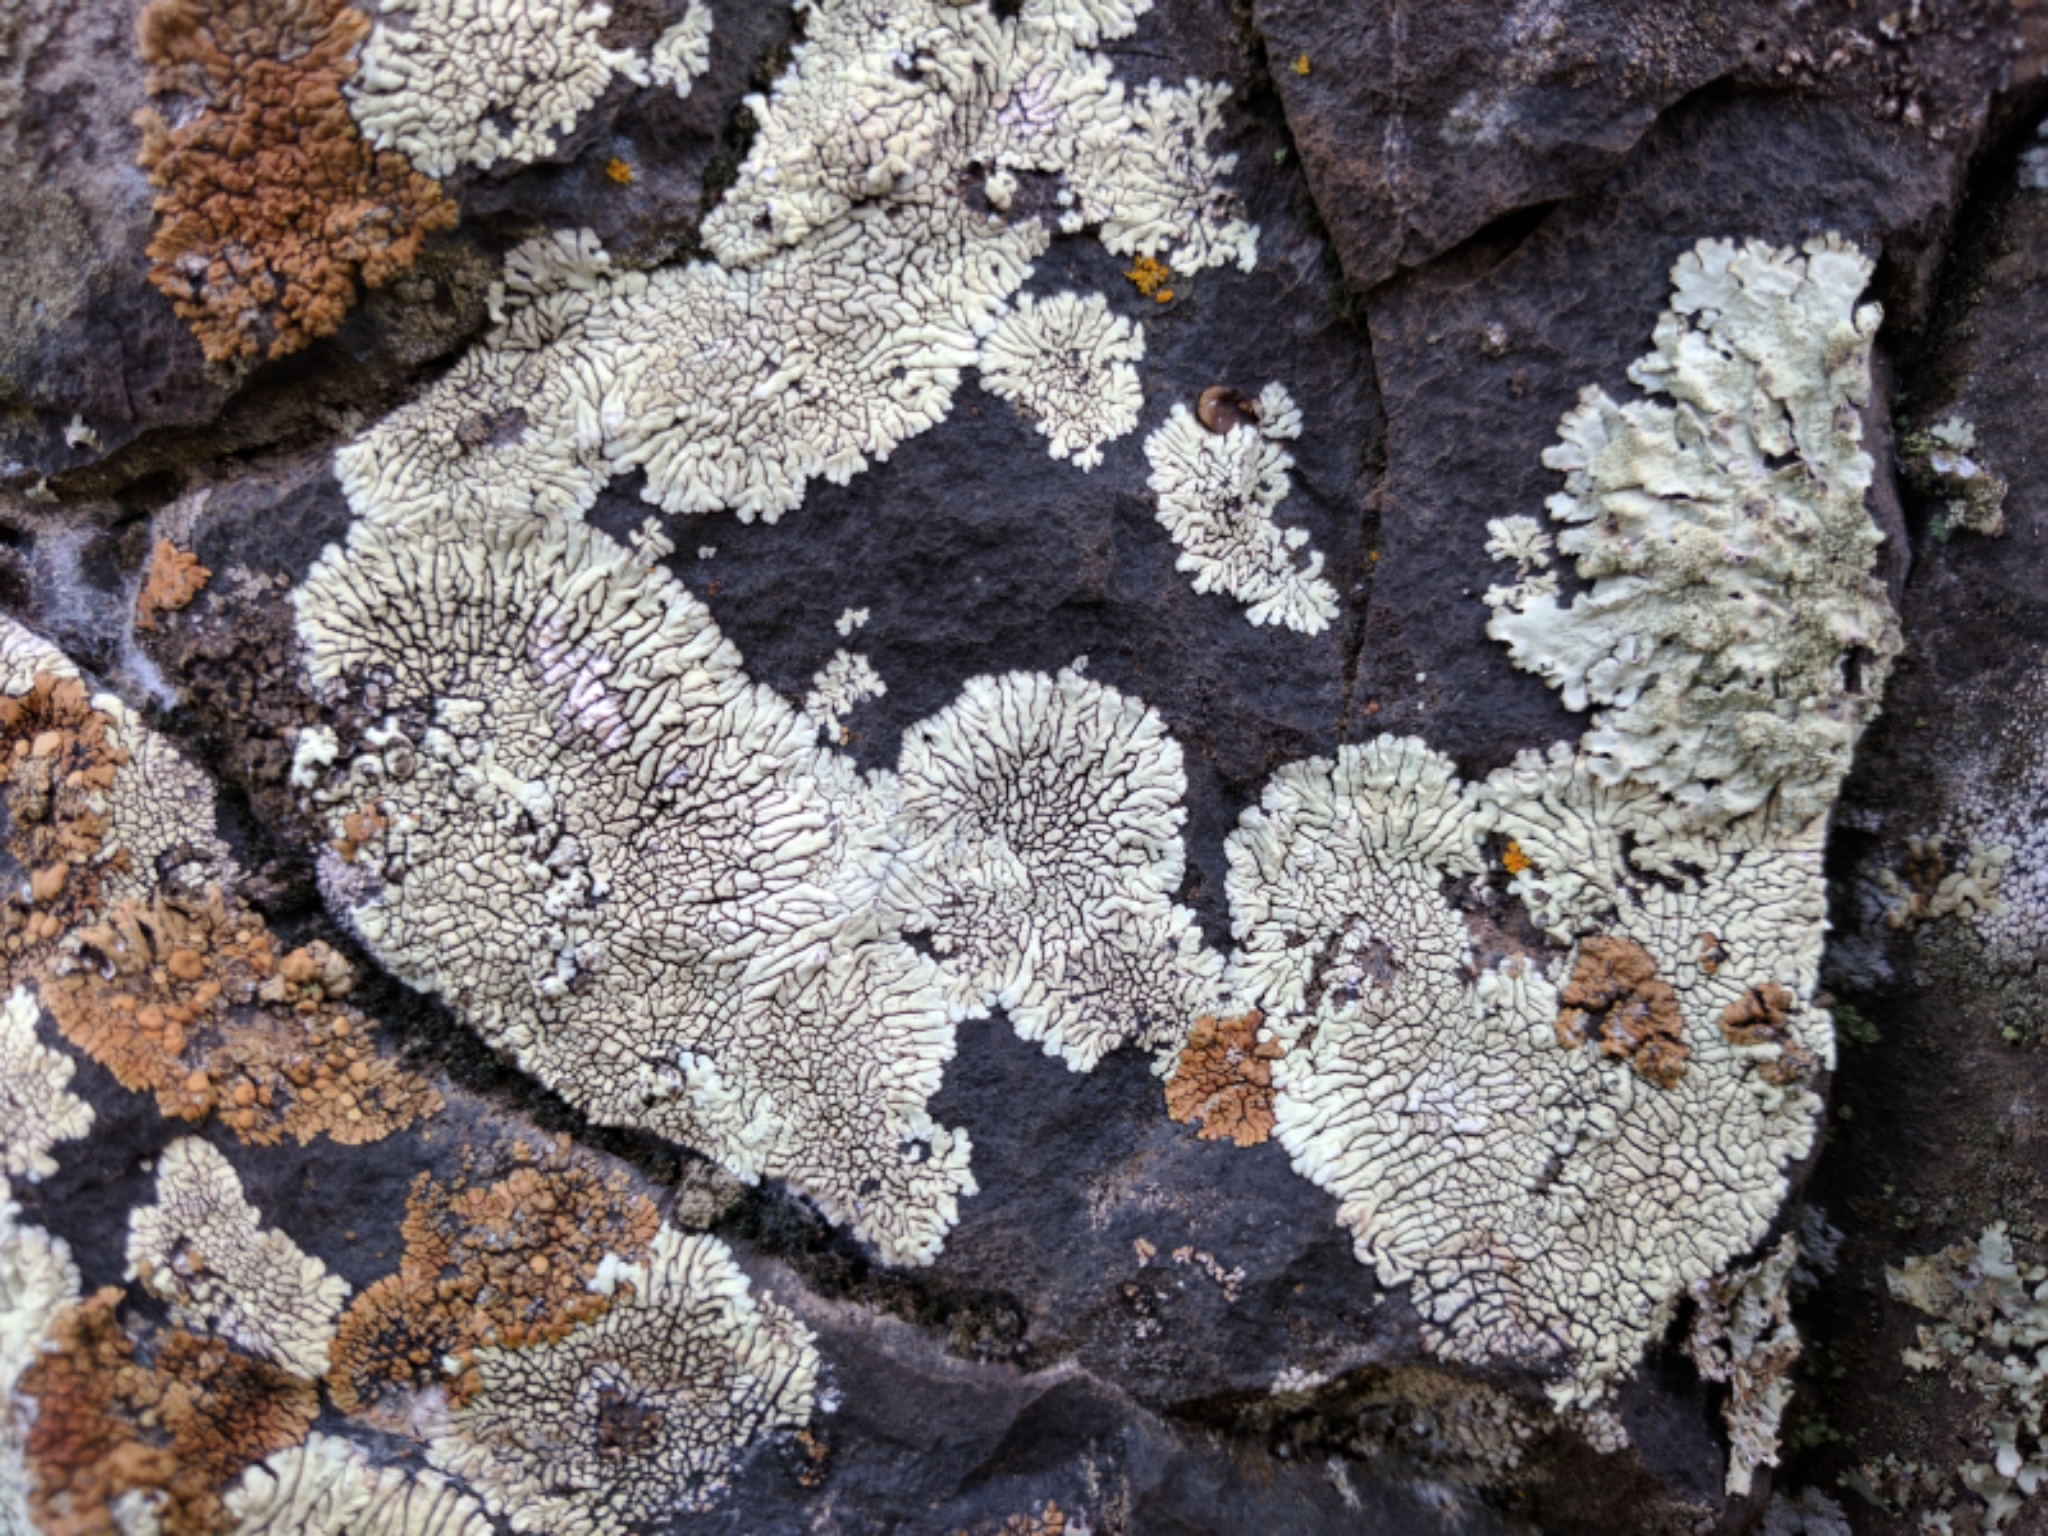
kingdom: Fungi
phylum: Ascomycota
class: Lecanoromycetes
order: Caliciales
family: Caliciaceae
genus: Dimelaena
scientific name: Dimelaena oreina
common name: Golden moonglow lichen
